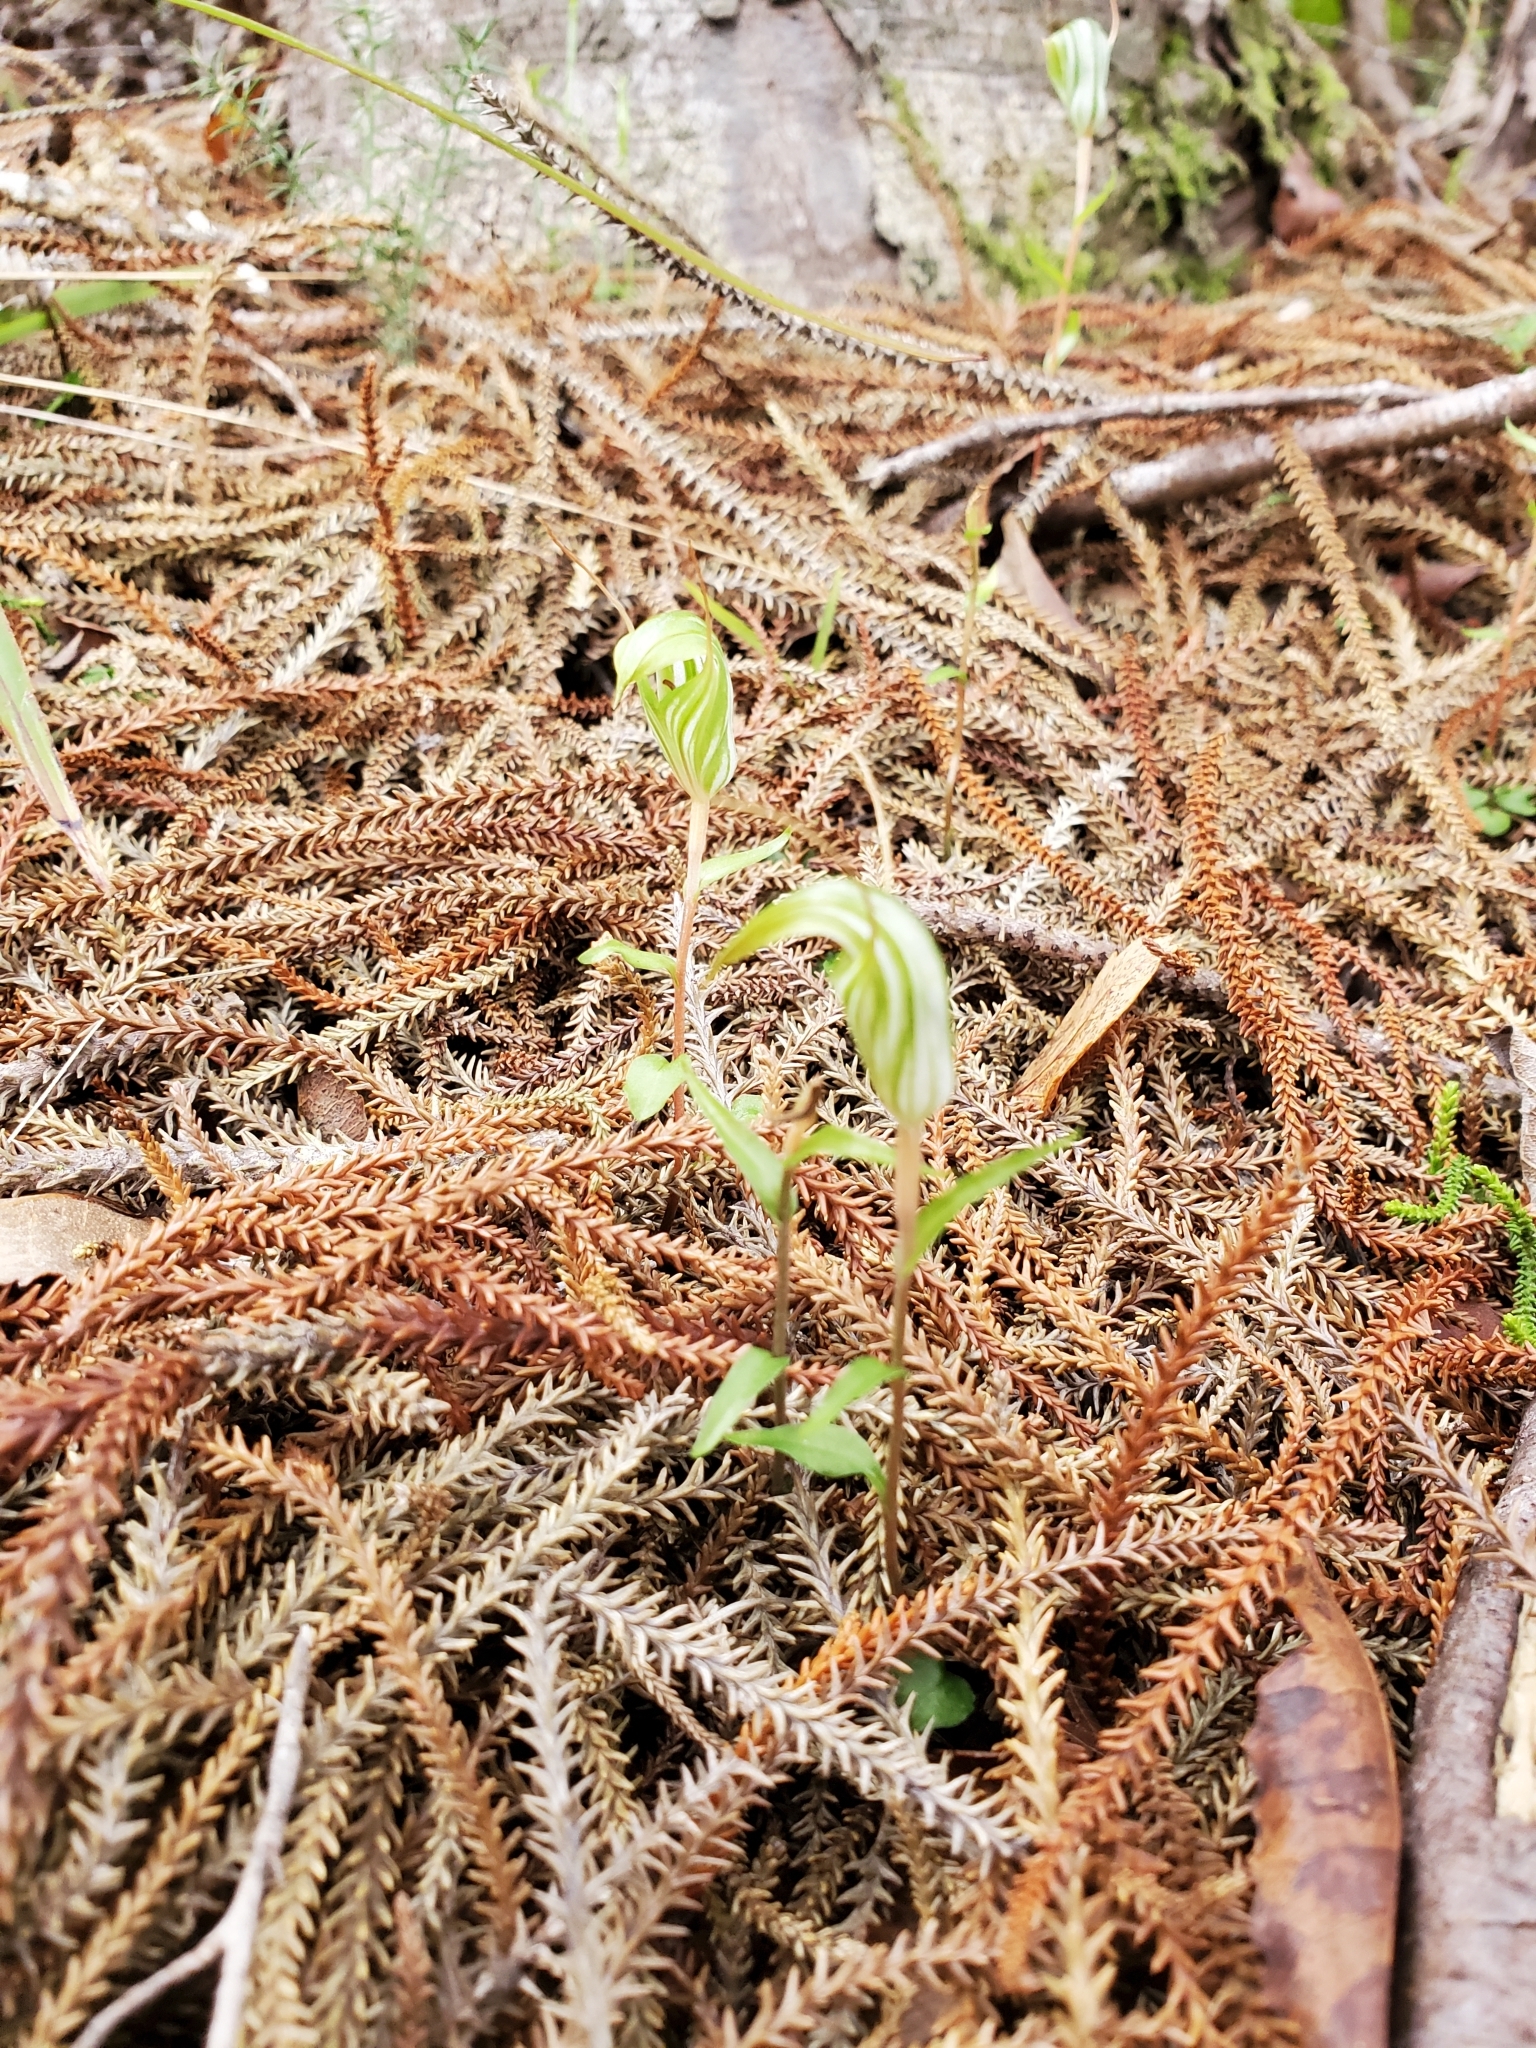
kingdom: Plantae
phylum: Tracheophyta
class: Liliopsida
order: Asparagales
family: Orchidaceae
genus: Pterostylis
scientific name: Pterostylis alobula
